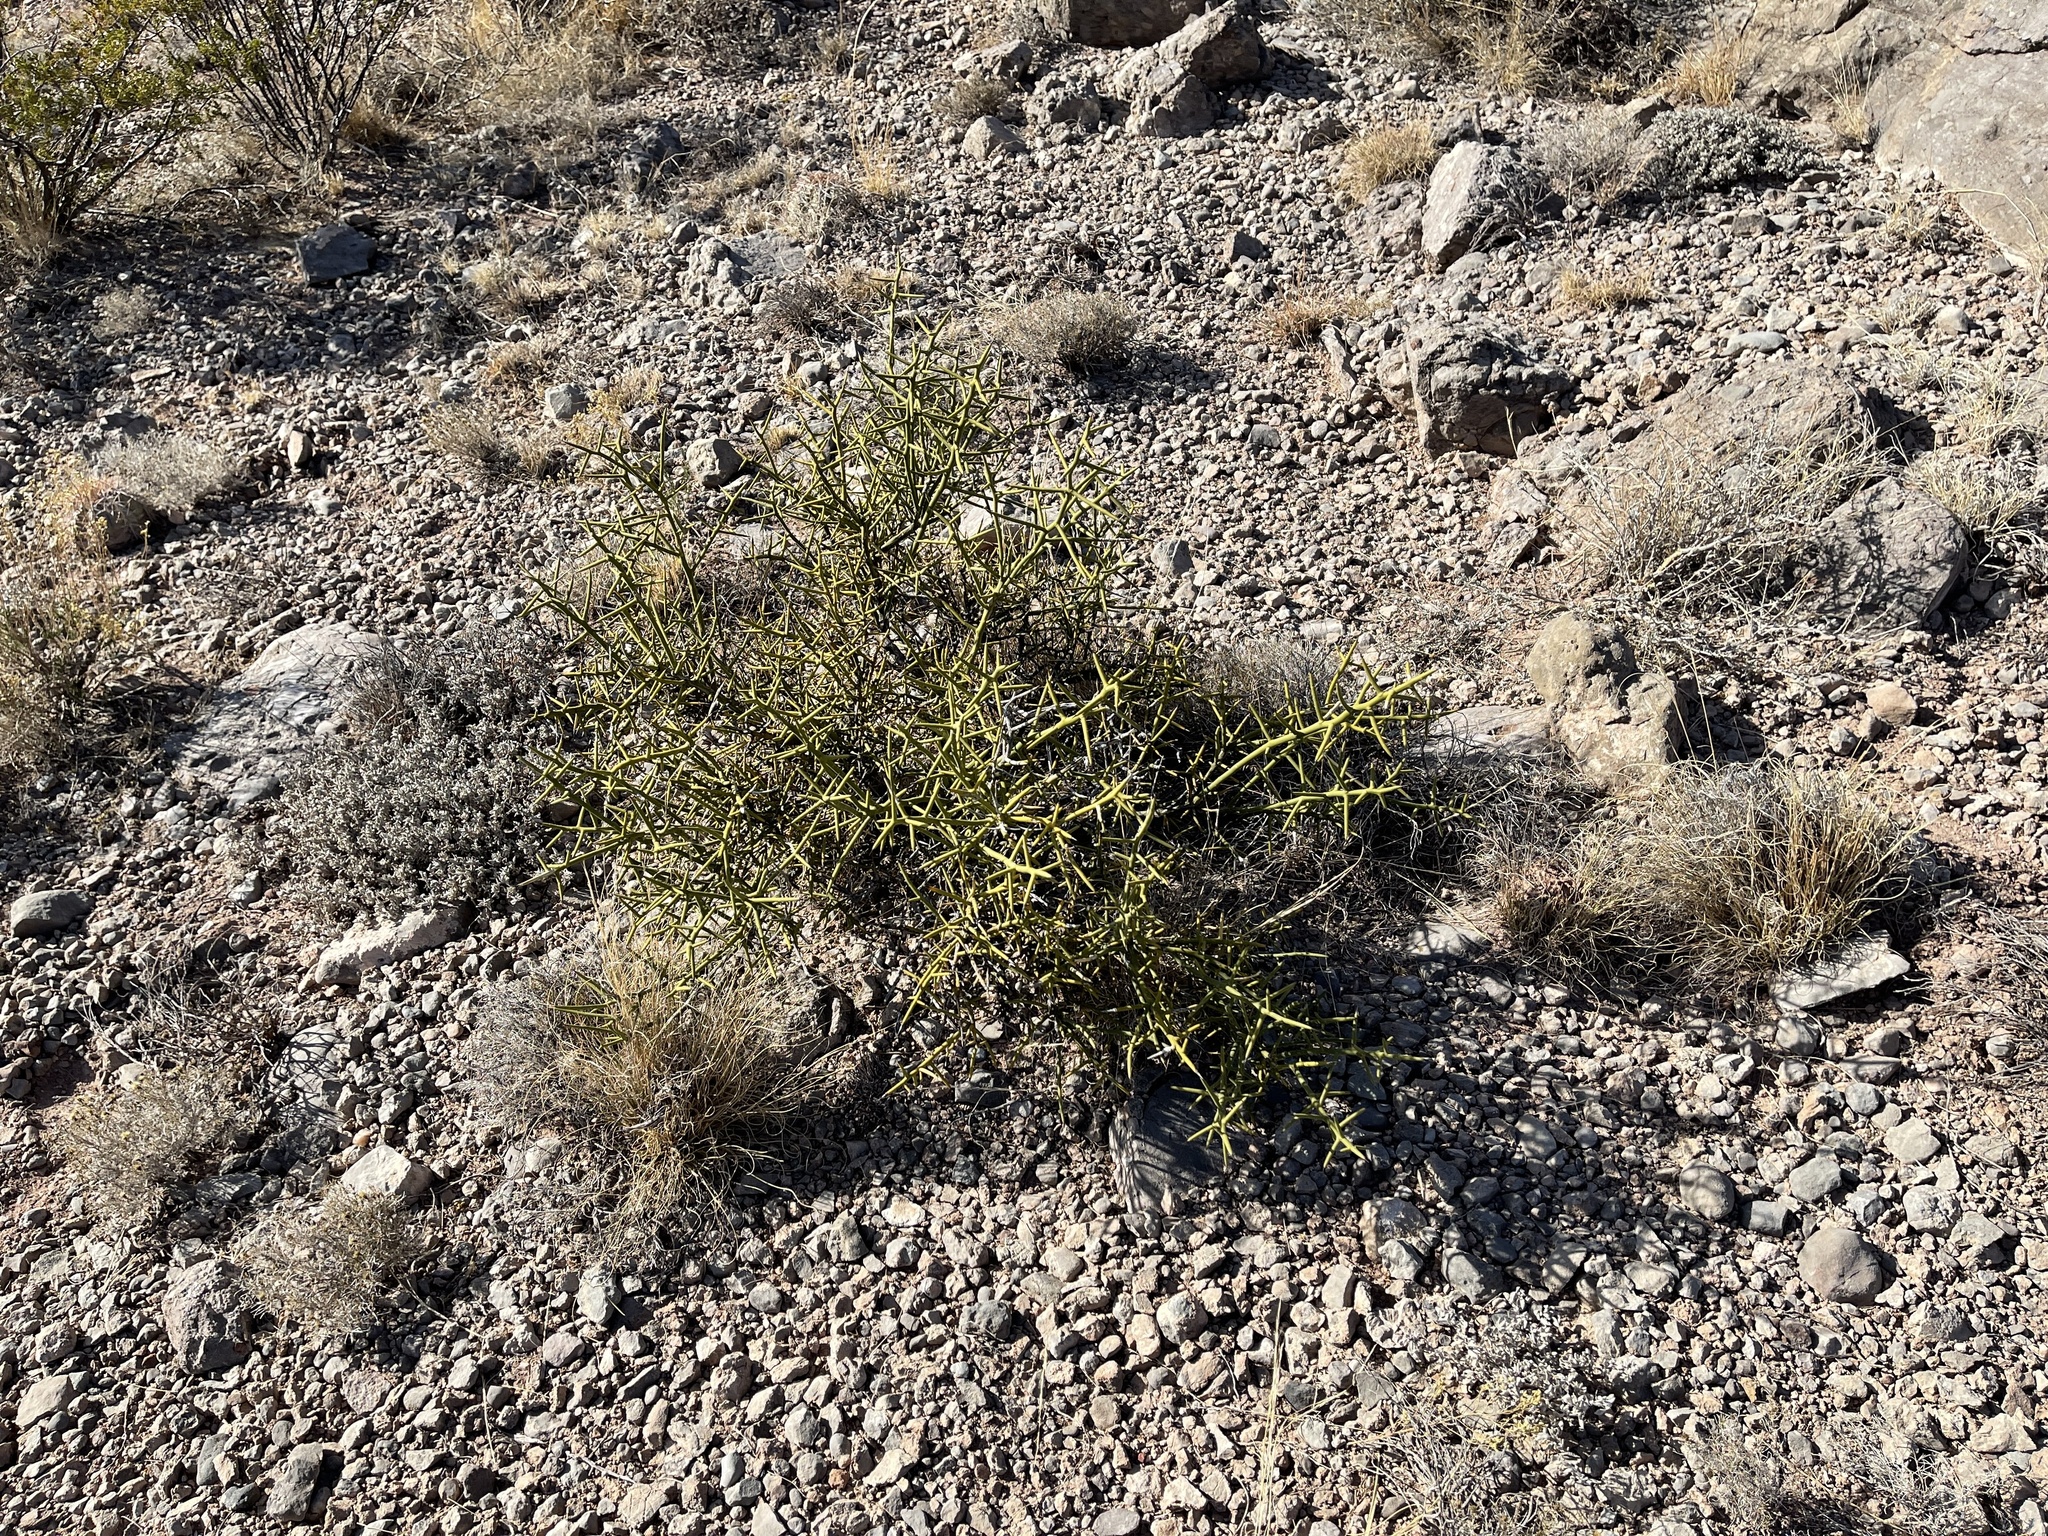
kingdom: Plantae
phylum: Tracheophyta
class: Magnoliopsida
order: Brassicales
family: Koeberliniaceae
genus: Koeberlinia
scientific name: Koeberlinia spinosa
